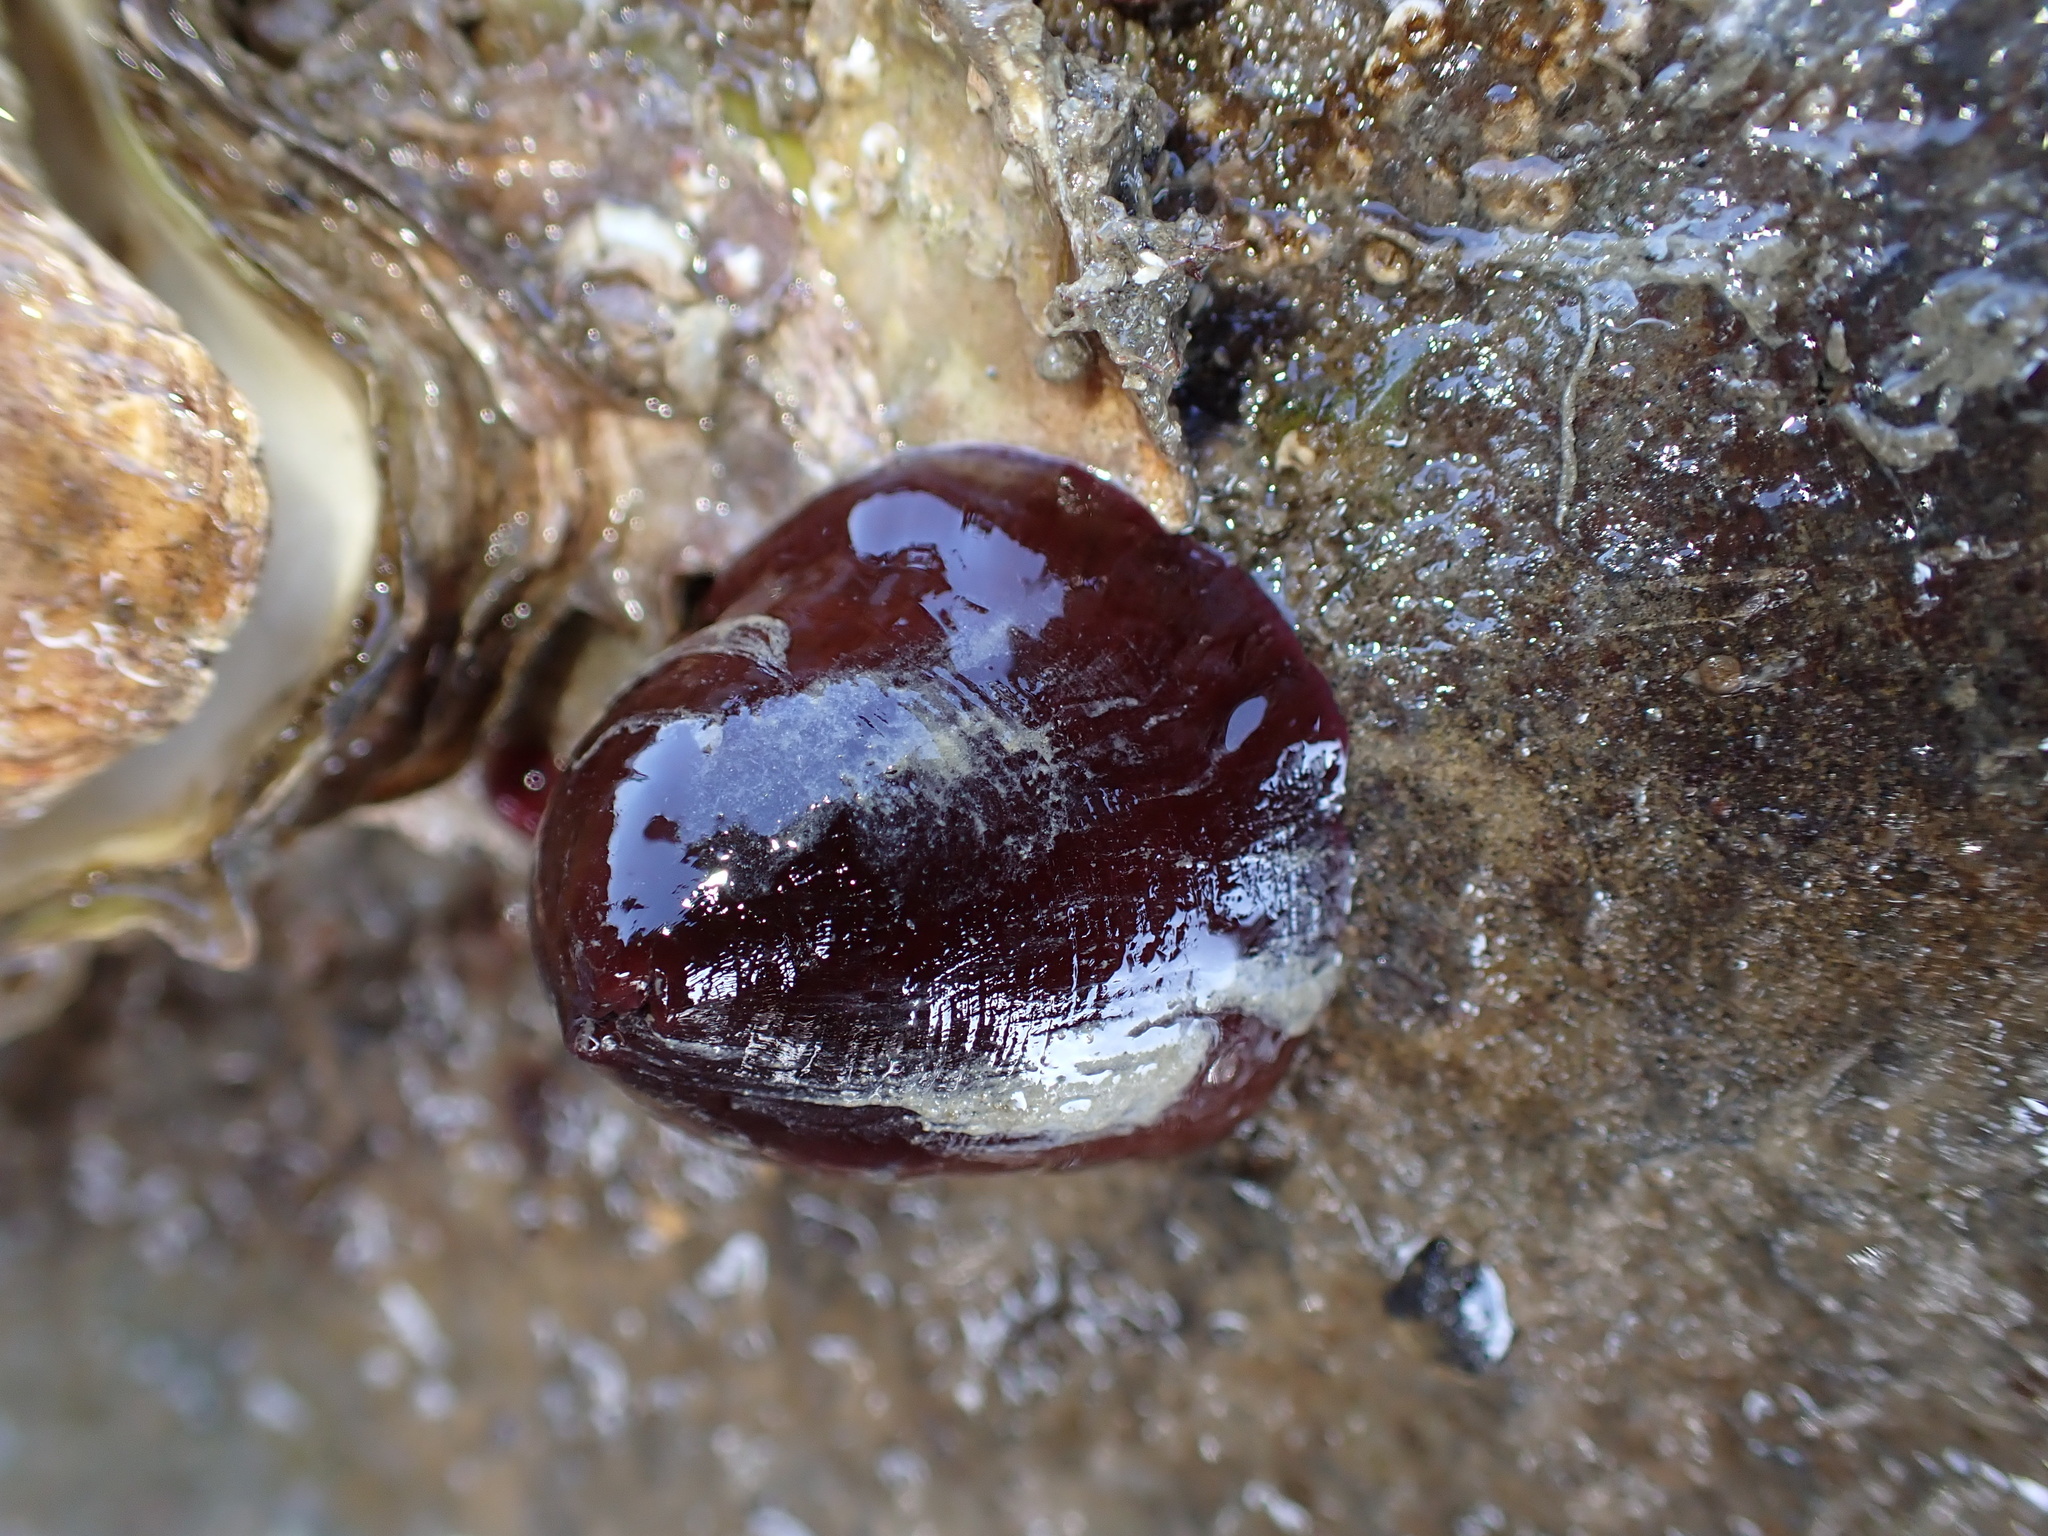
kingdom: Animalia
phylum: Cnidaria
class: Anthozoa
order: Actiniaria
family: Actiniidae
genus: Actinia
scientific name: Actinia equina
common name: Beadlet anemone
